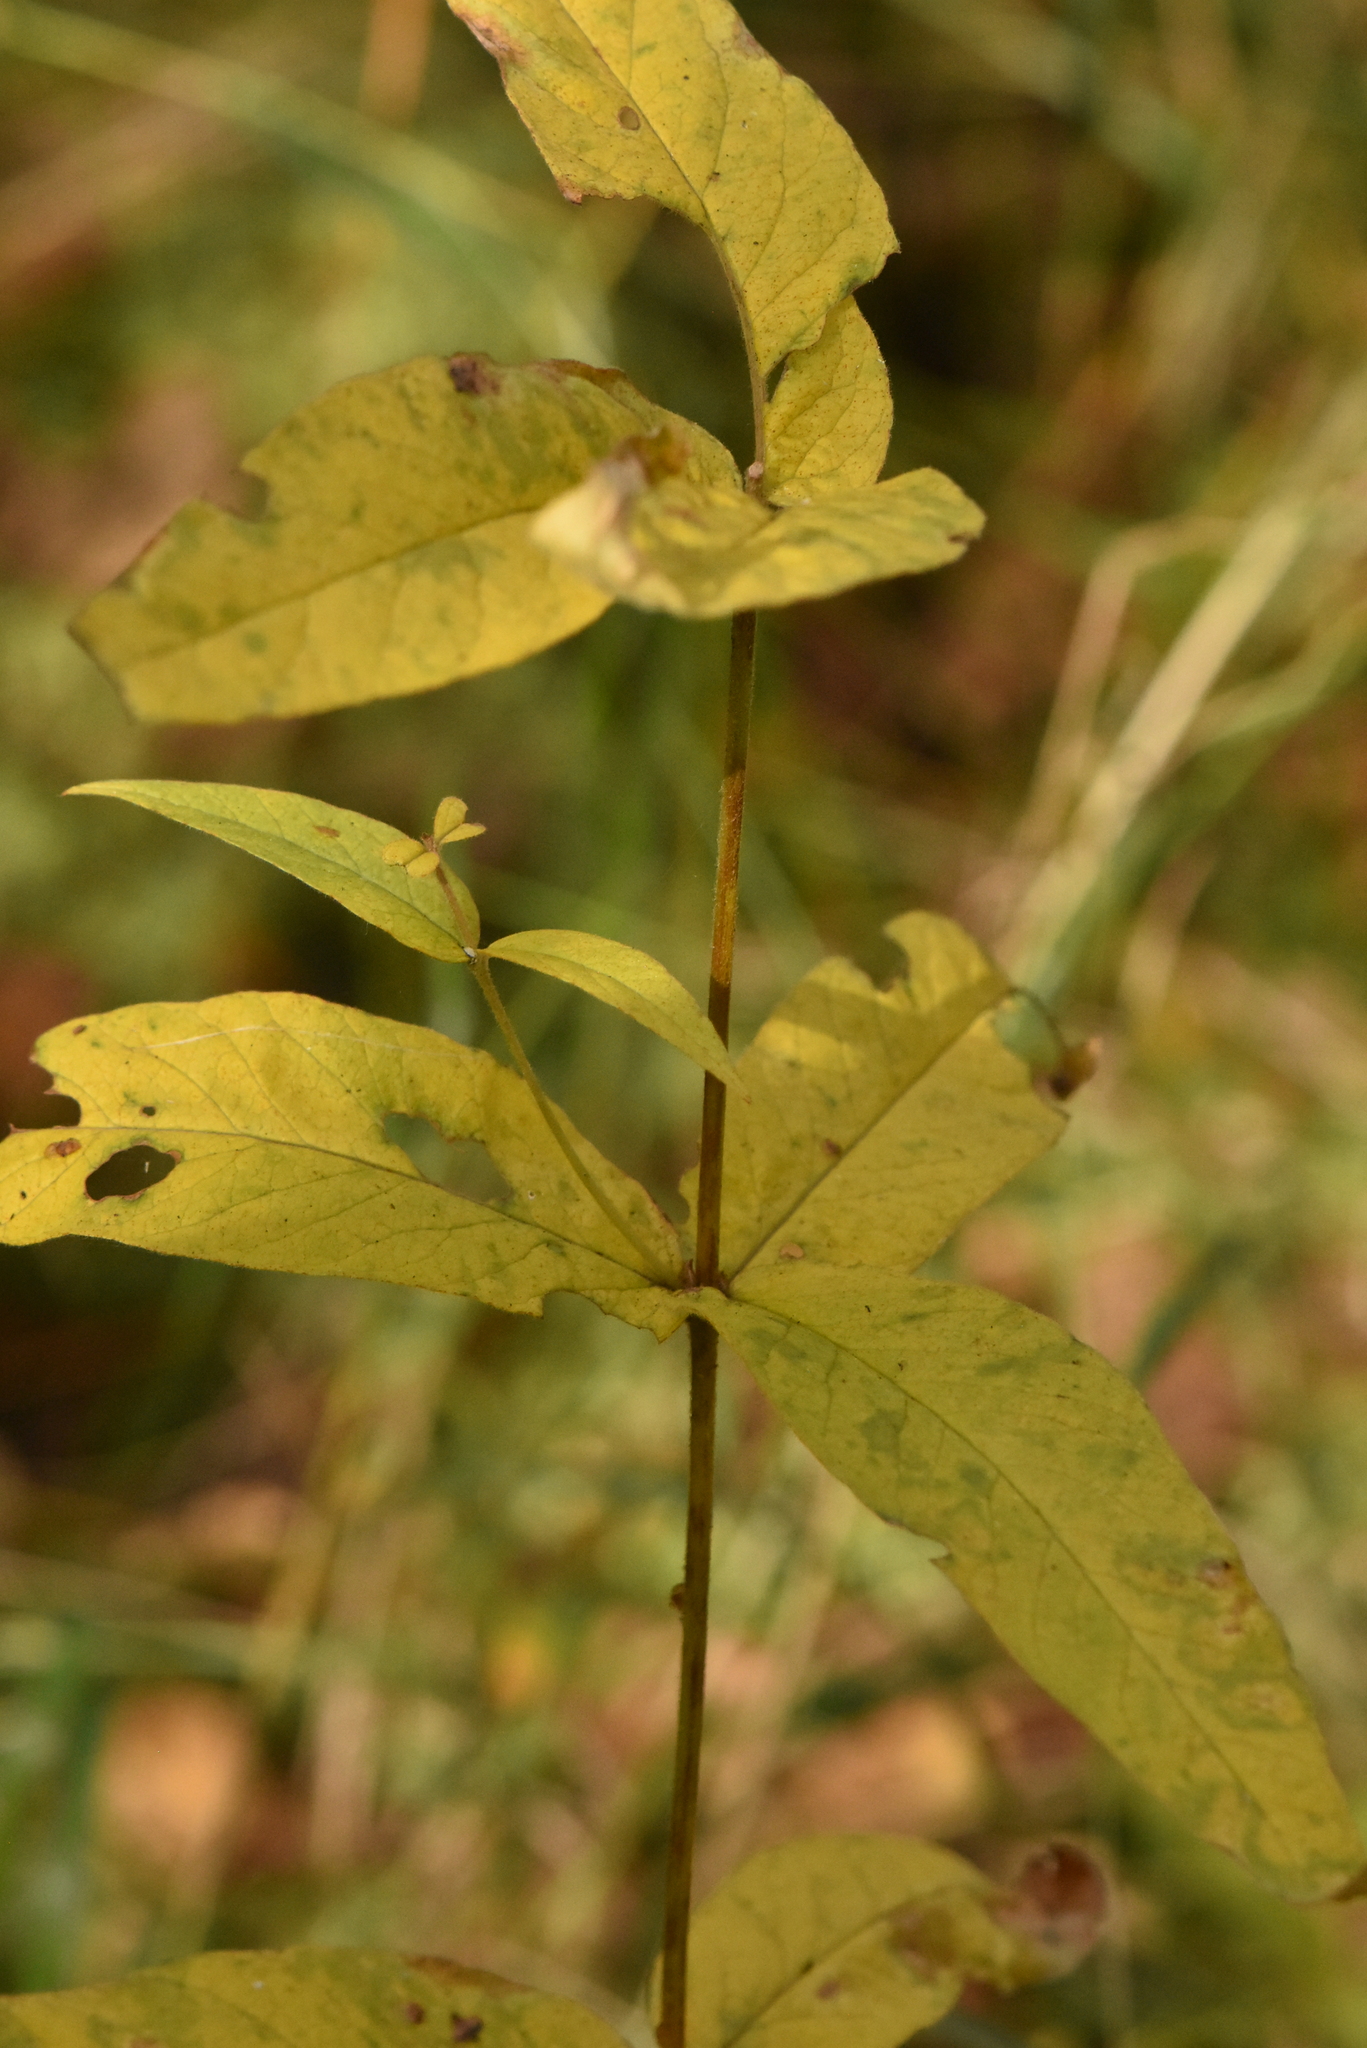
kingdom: Plantae
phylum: Tracheophyta
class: Magnoliopsida
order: Ericales
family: Primulaceae
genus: Lysimachia
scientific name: Lysimachia vulgaris
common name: Yellow loosestrife
